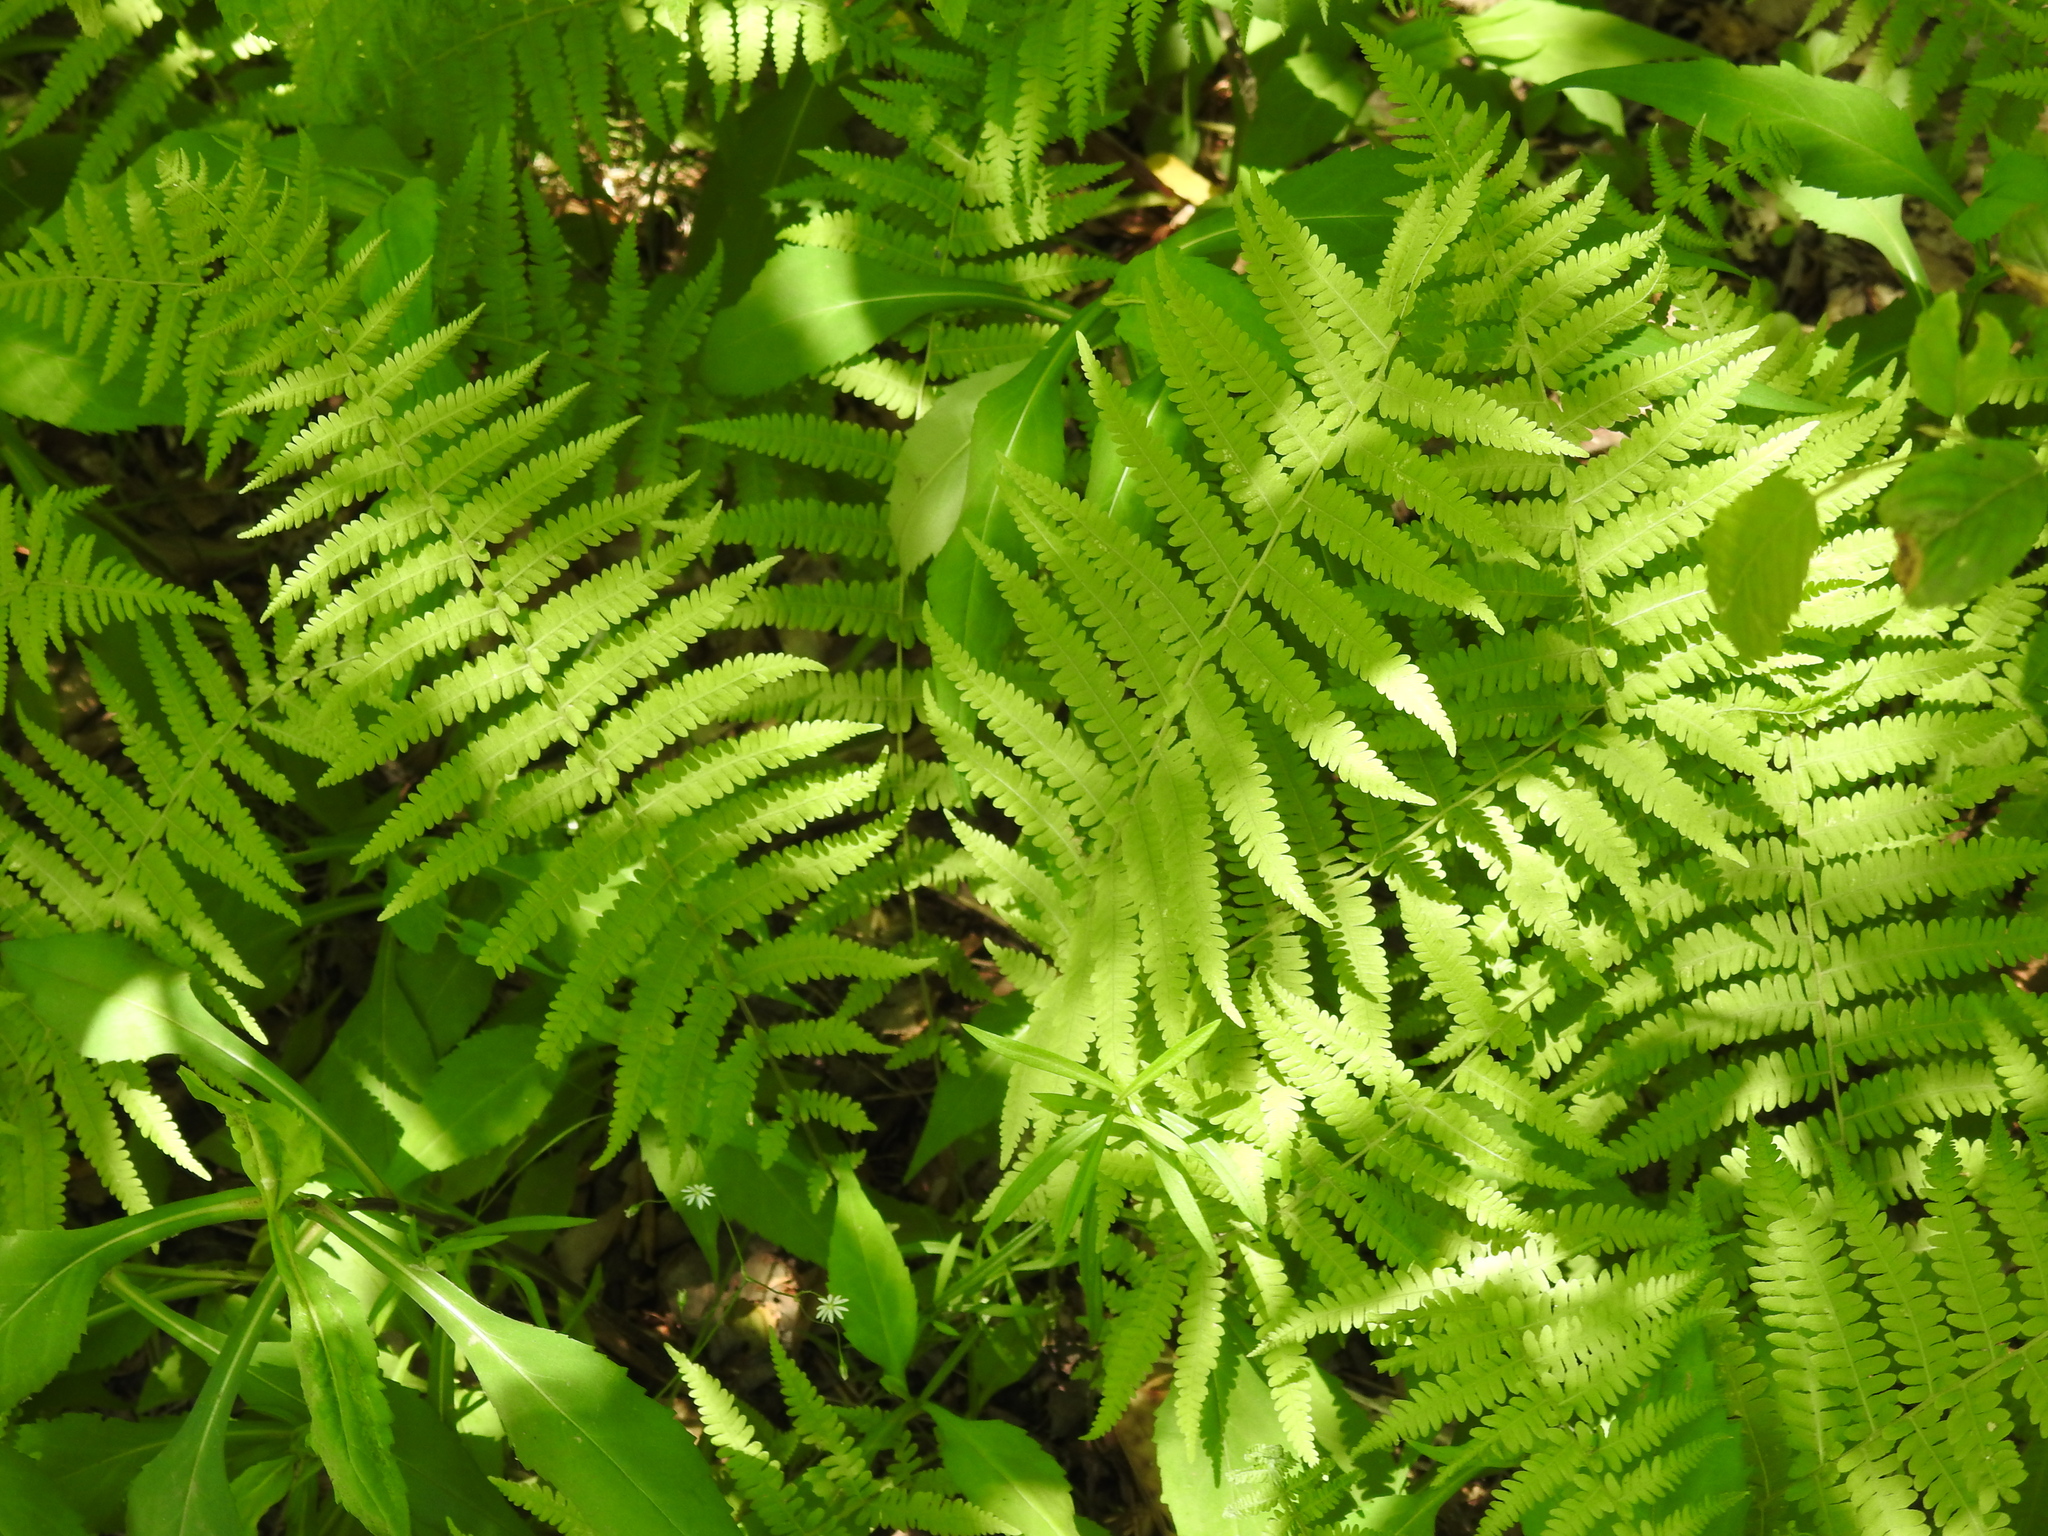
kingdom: Plantae
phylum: Tracheophyta
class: Polypodiopsida
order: Polypodiales
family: Thelypteridaceae
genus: Amauropelta
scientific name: Amauropelta noveboracensis
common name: New york fern
